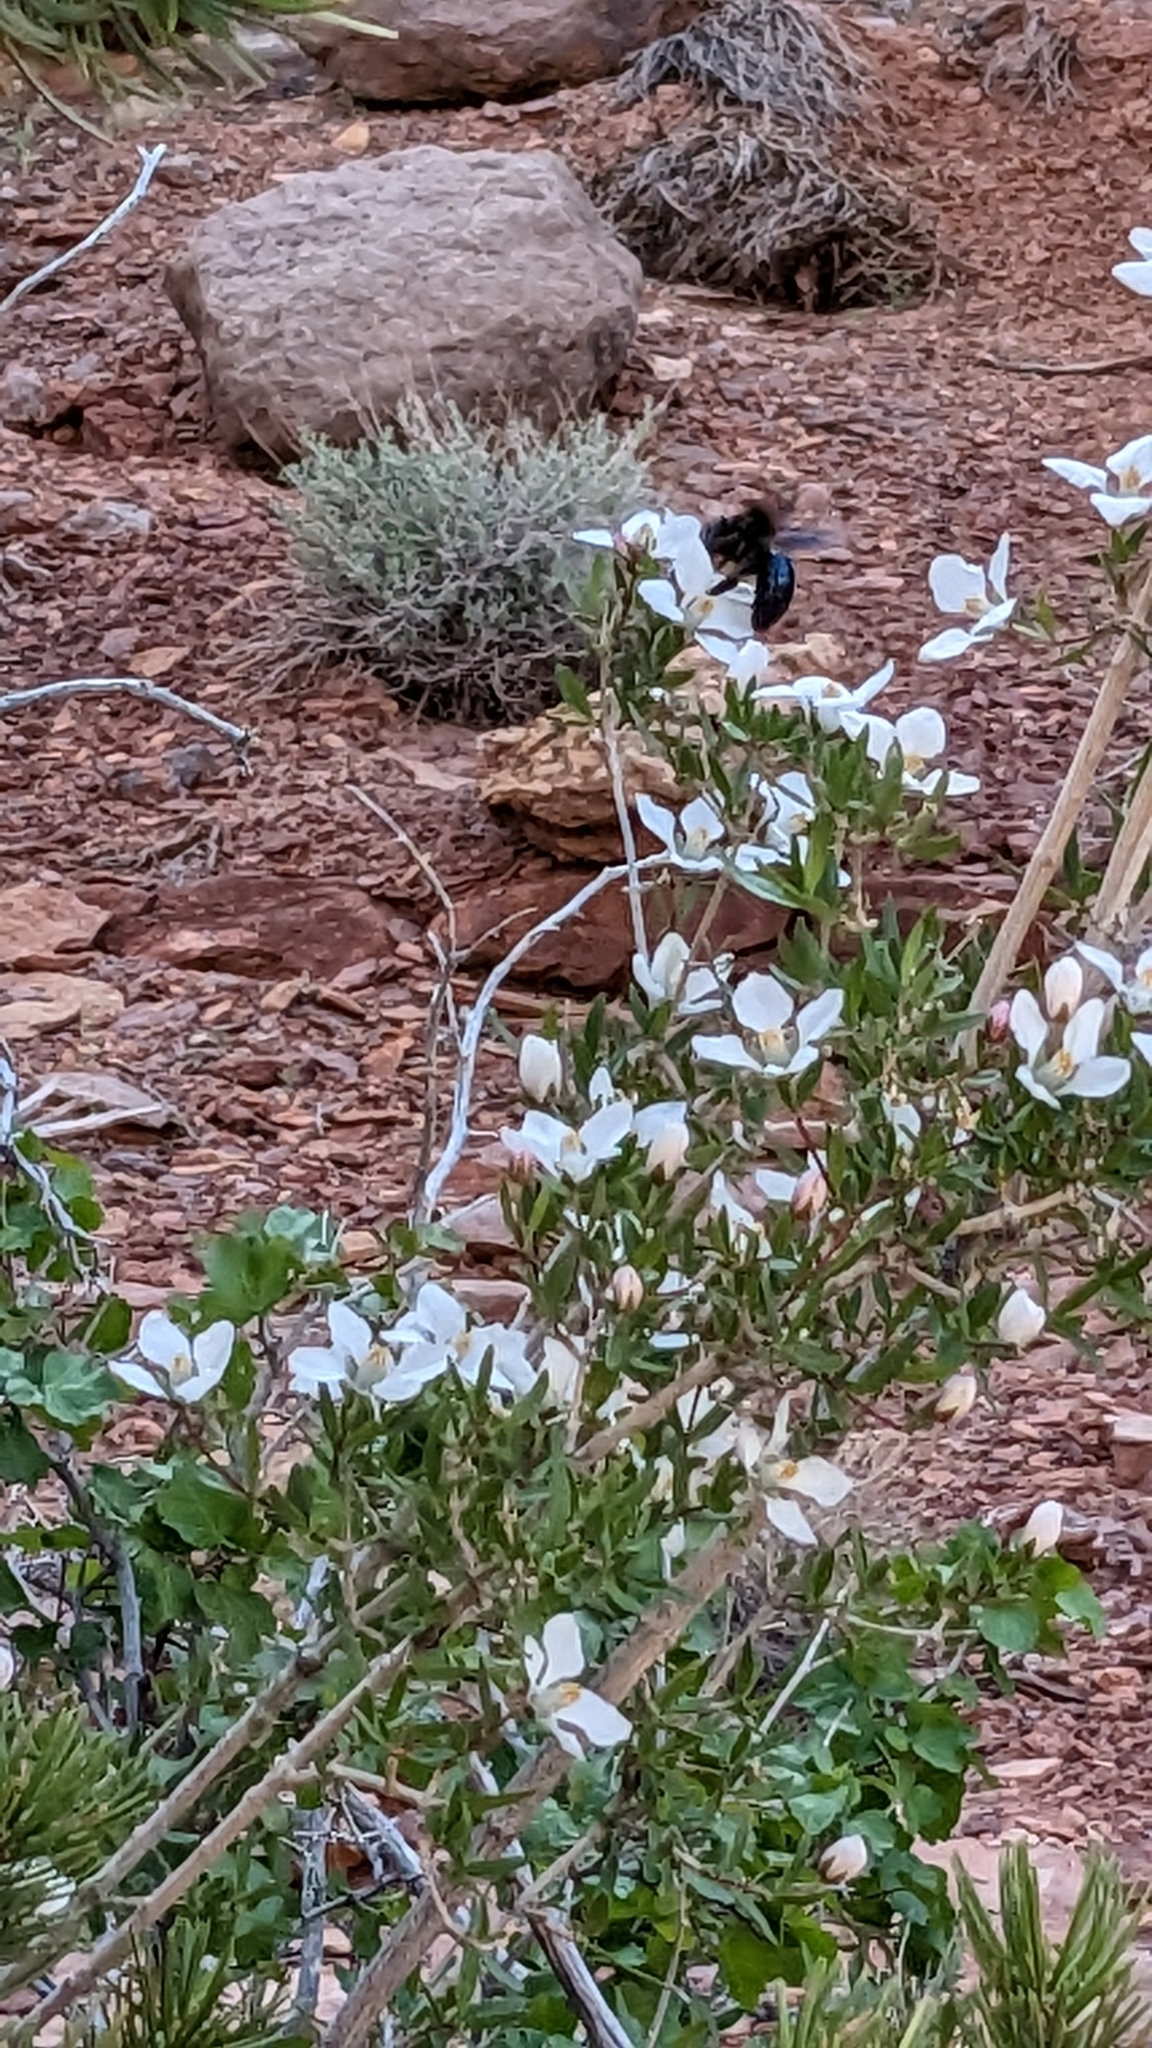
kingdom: Animalia
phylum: Arthropoda
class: Insecta
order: Hymenoptera
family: Apidae
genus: Xylocopa
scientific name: Xylocopa californica
